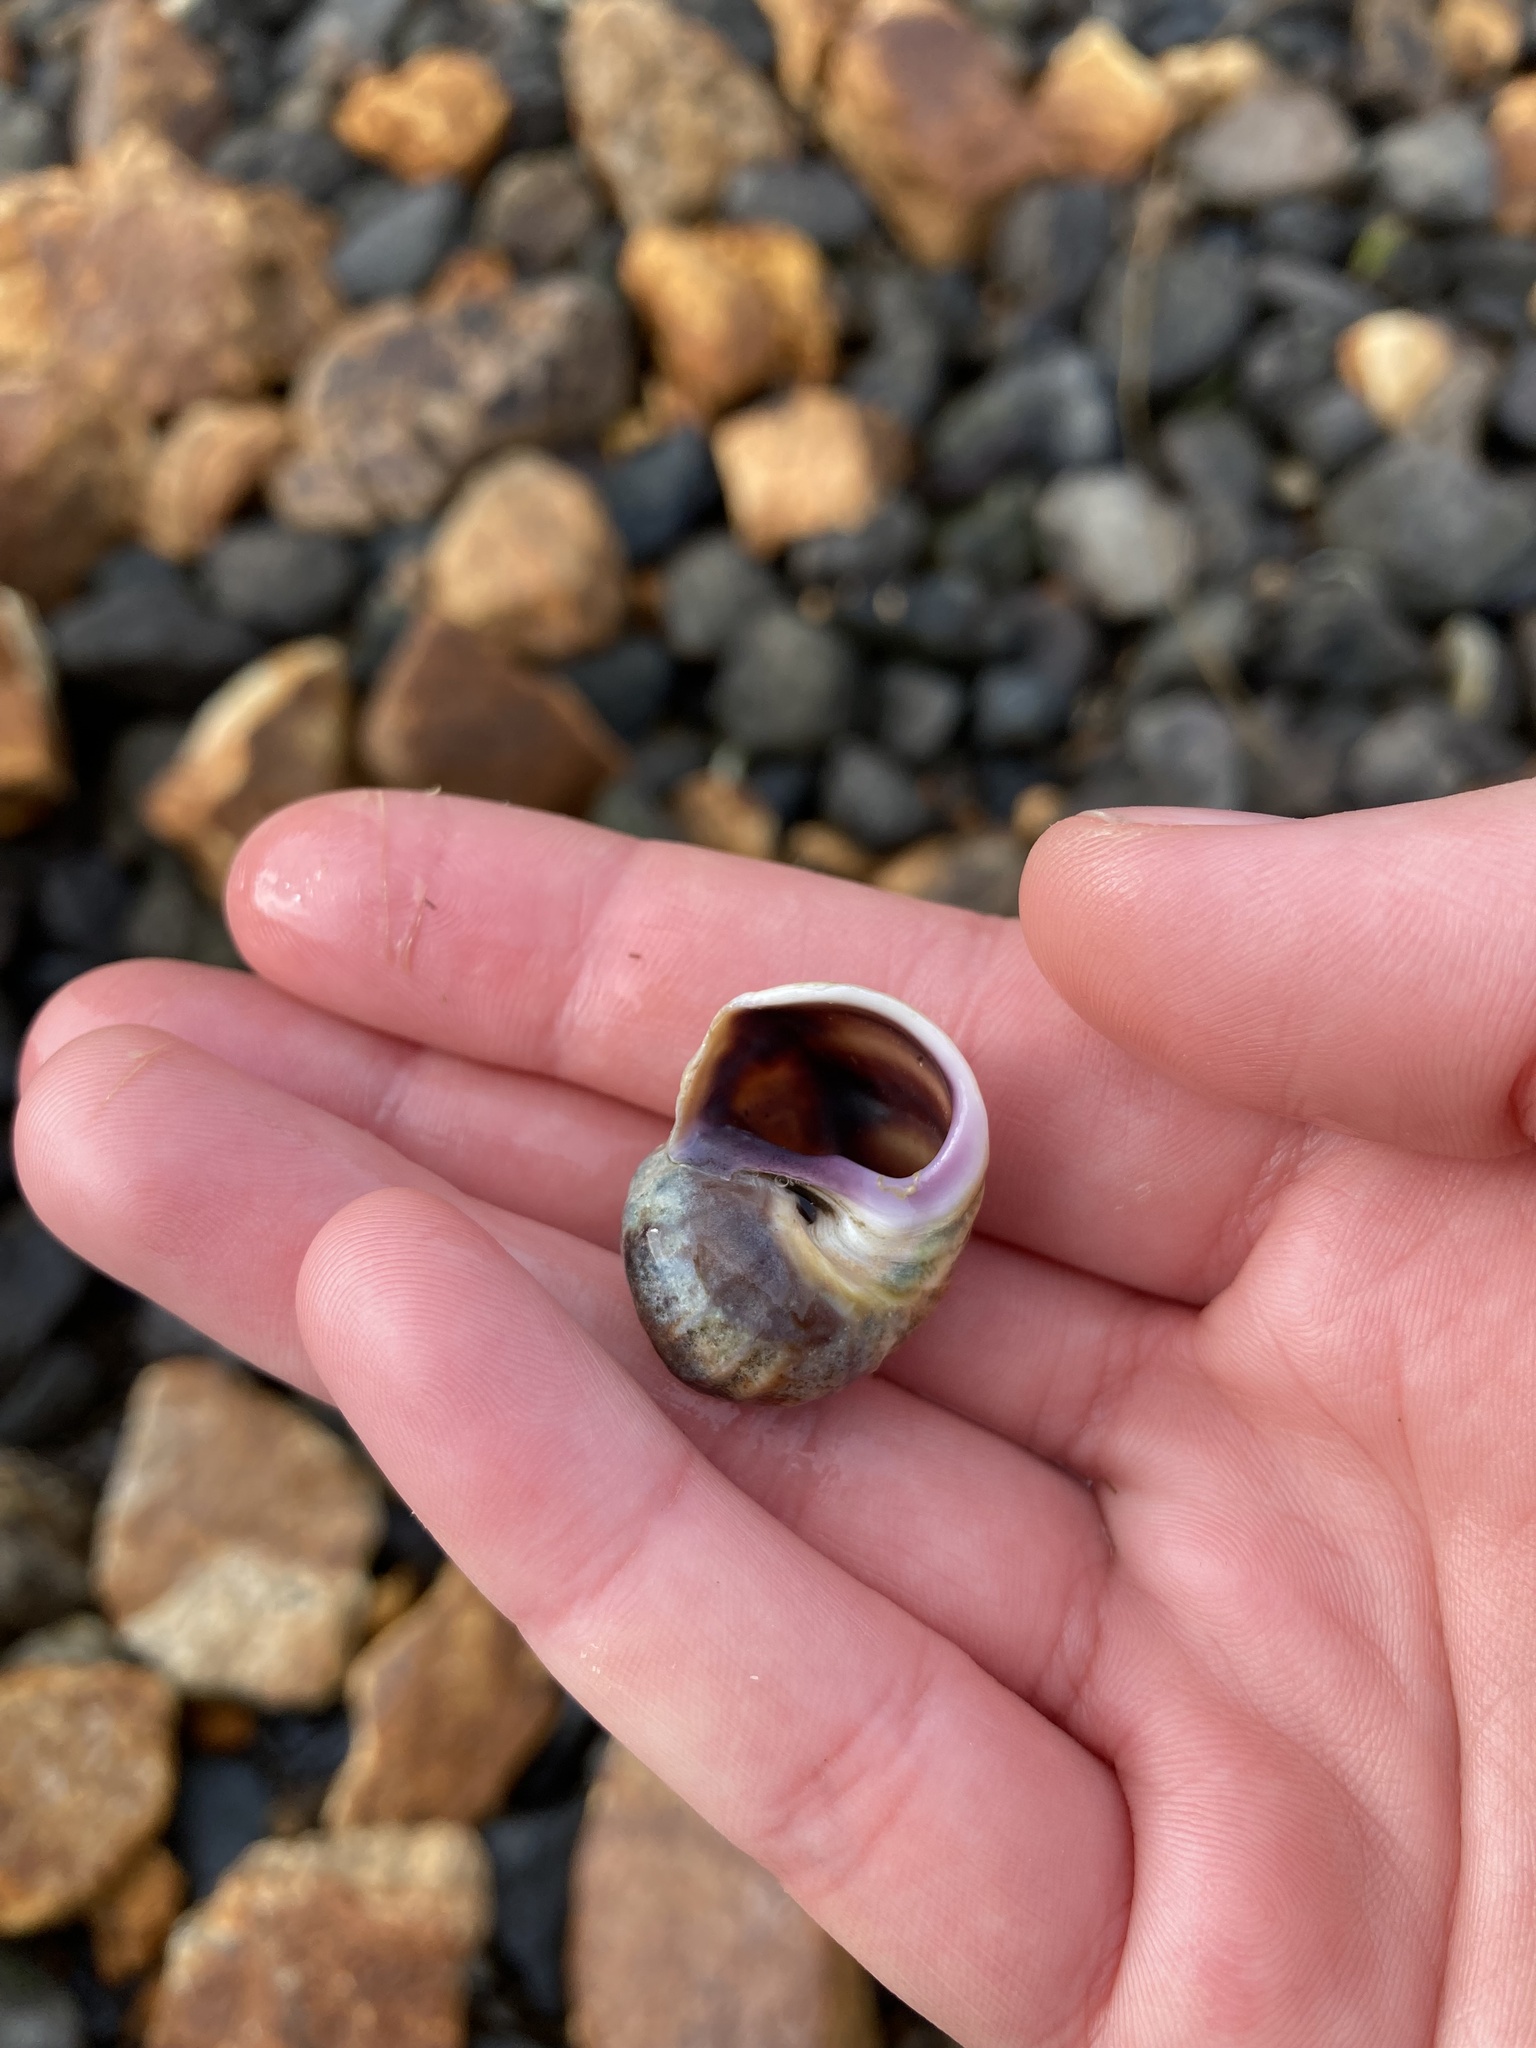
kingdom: Animalia
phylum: Mollusca
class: Gastropoda
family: Amphibolidae
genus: Amphibola
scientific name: Amphibola crenata
